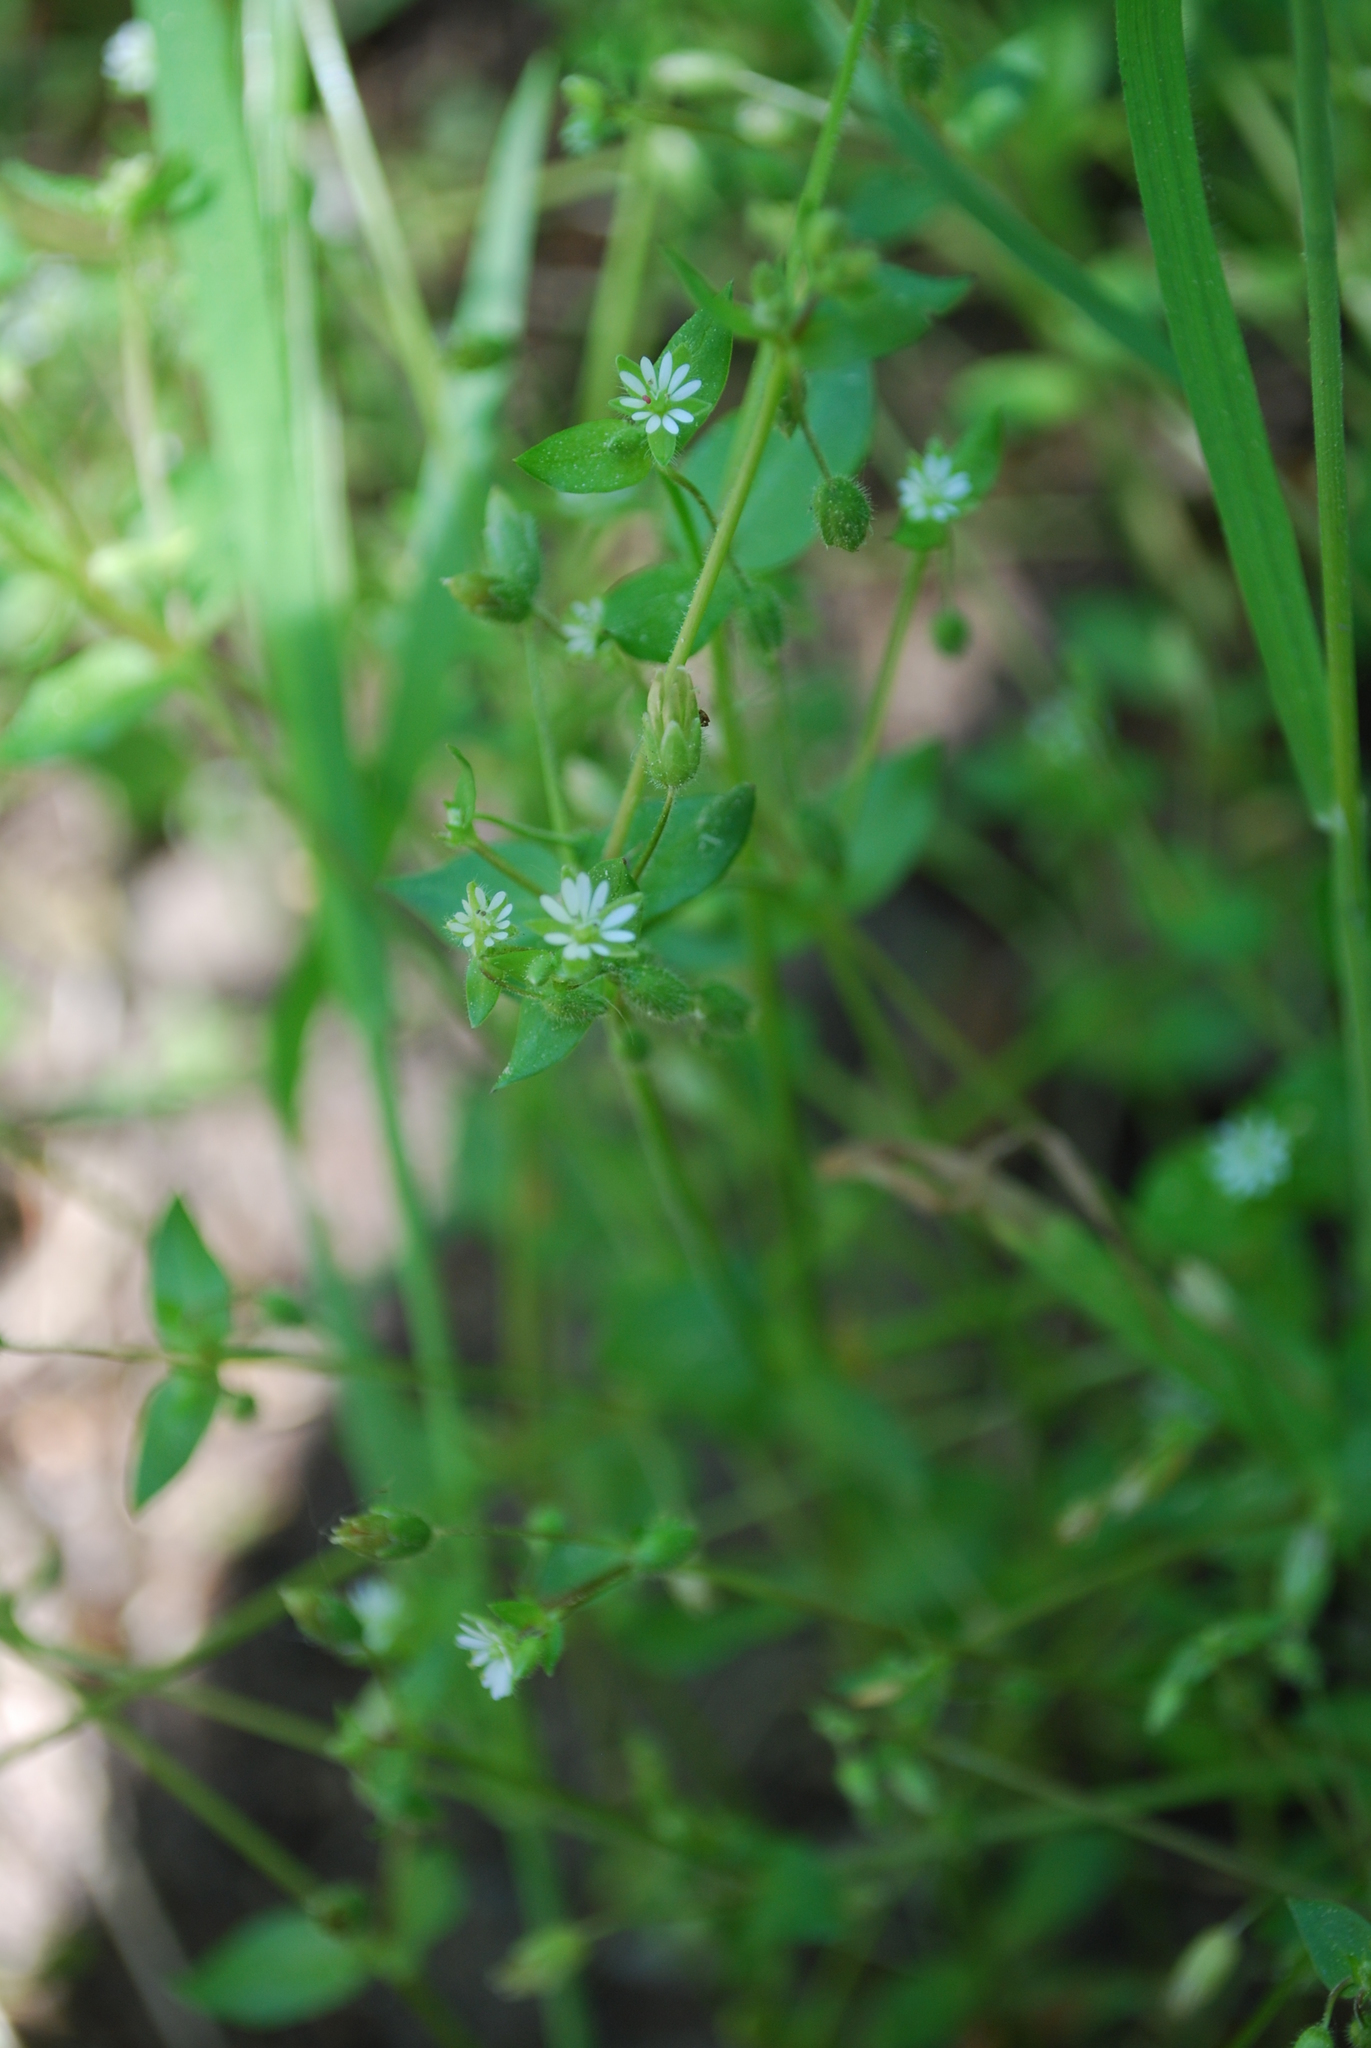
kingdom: Plantae
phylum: Tracheophyta
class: Magnoliopsida
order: Caryophyllales
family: Caryophyllaceae
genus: Stellaria
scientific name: Stellaria media
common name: Common chickweed
